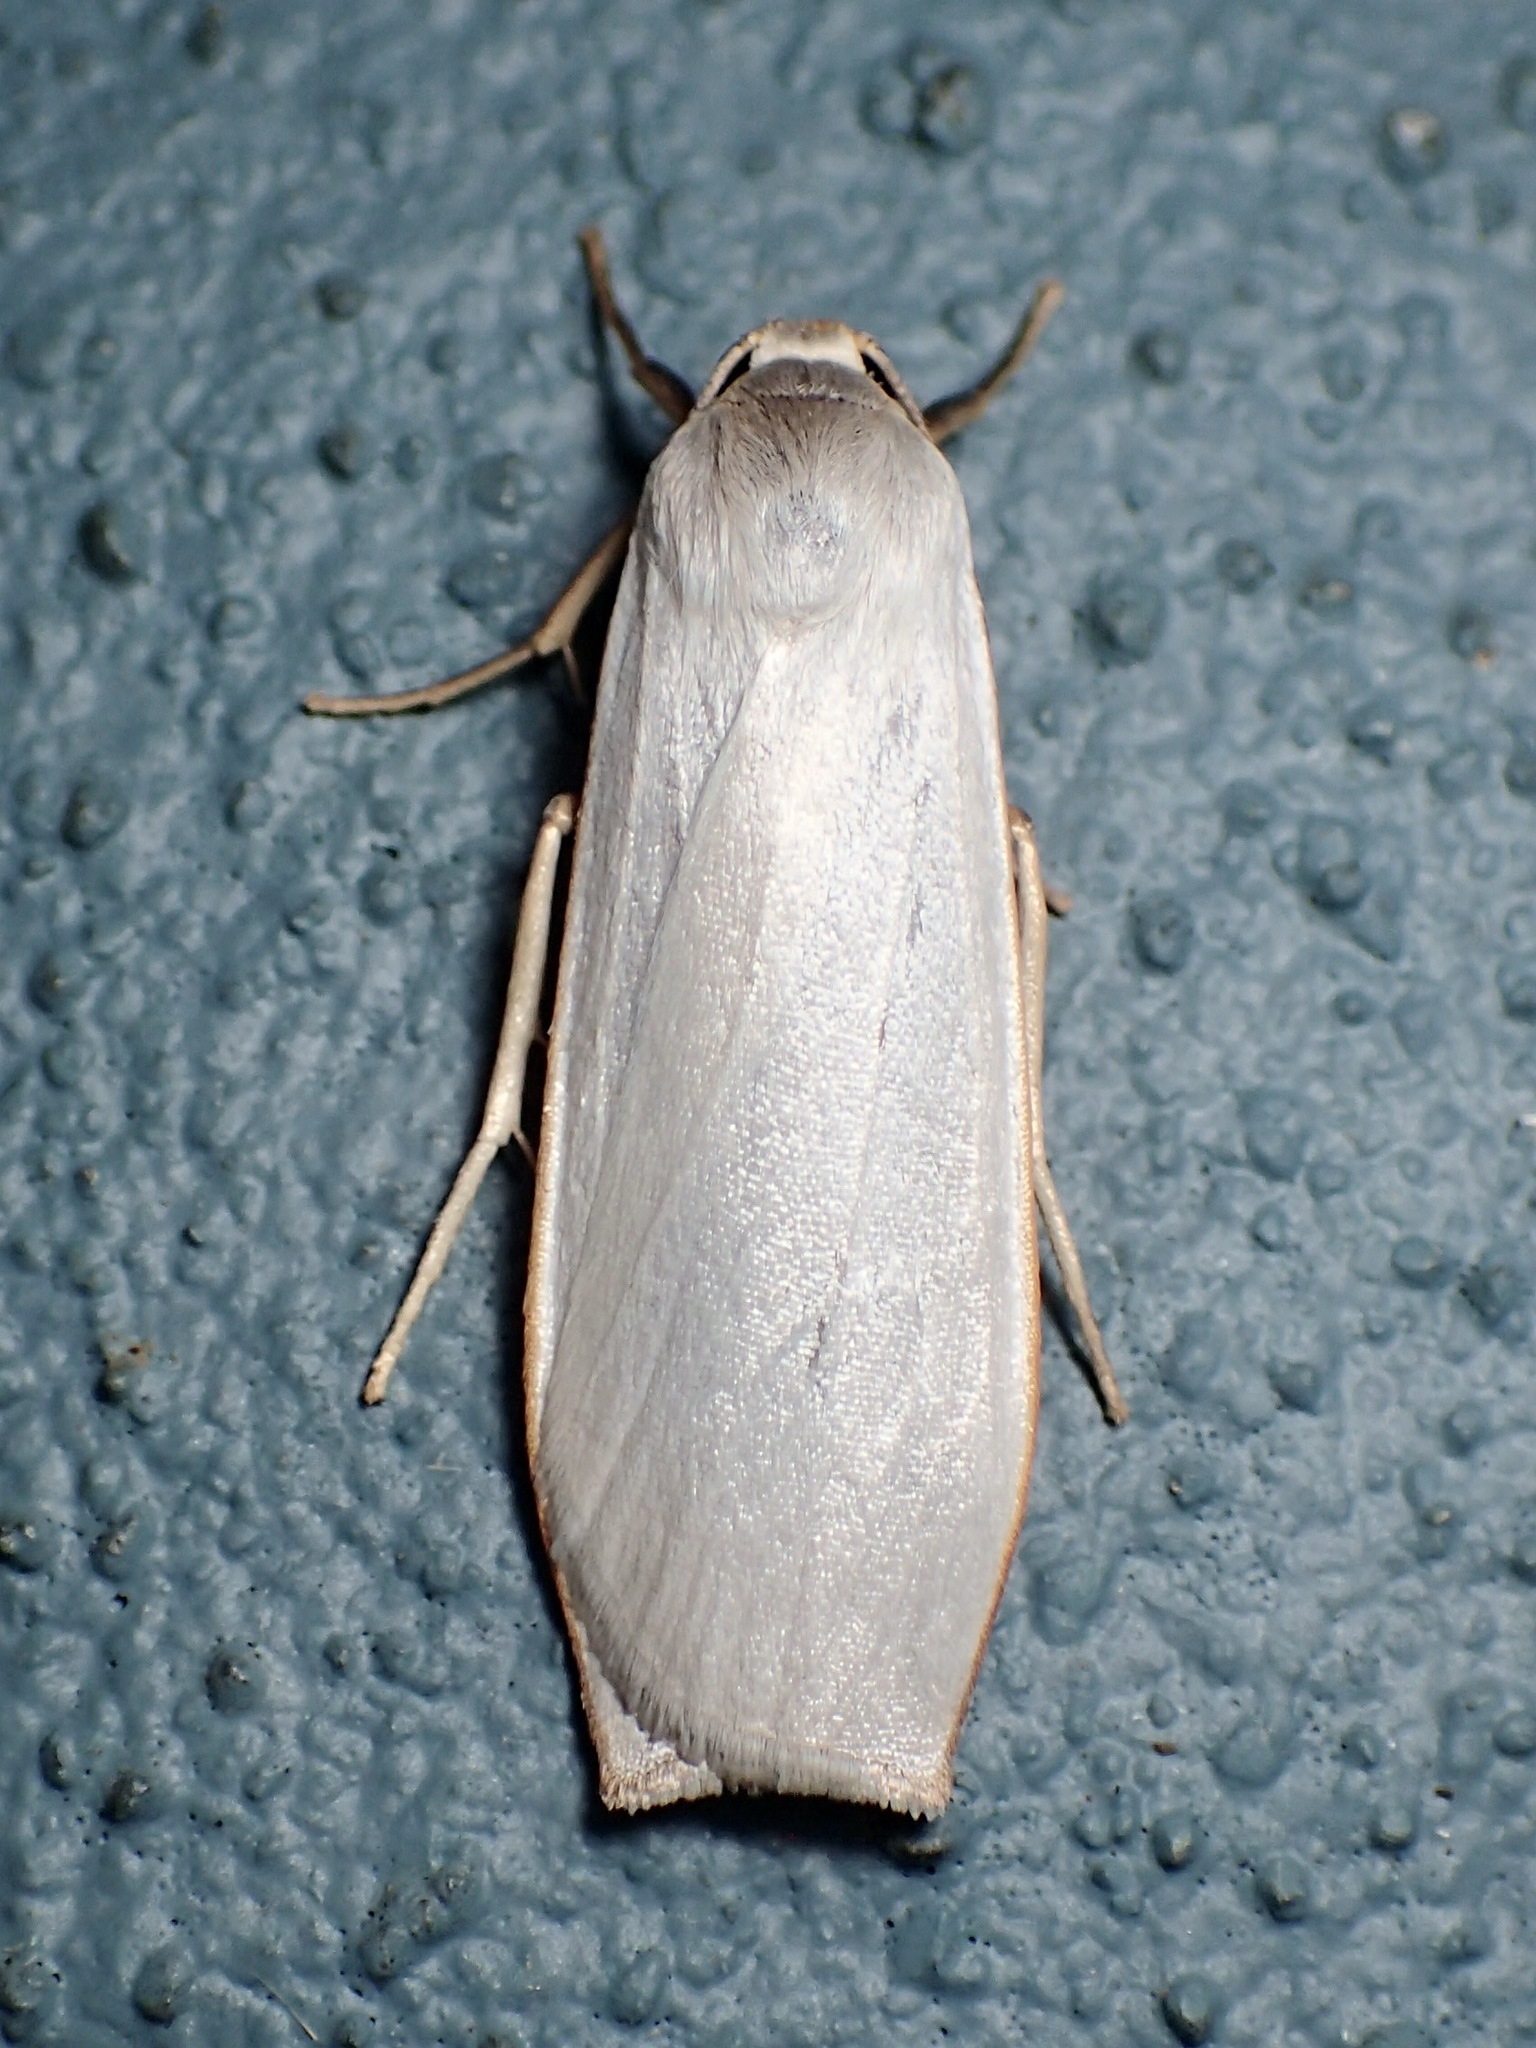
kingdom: Animalia
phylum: Arthropoda
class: Insecta
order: Lepidoptera
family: Erebidae
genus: Hesychopa
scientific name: Hesychopa chionora
